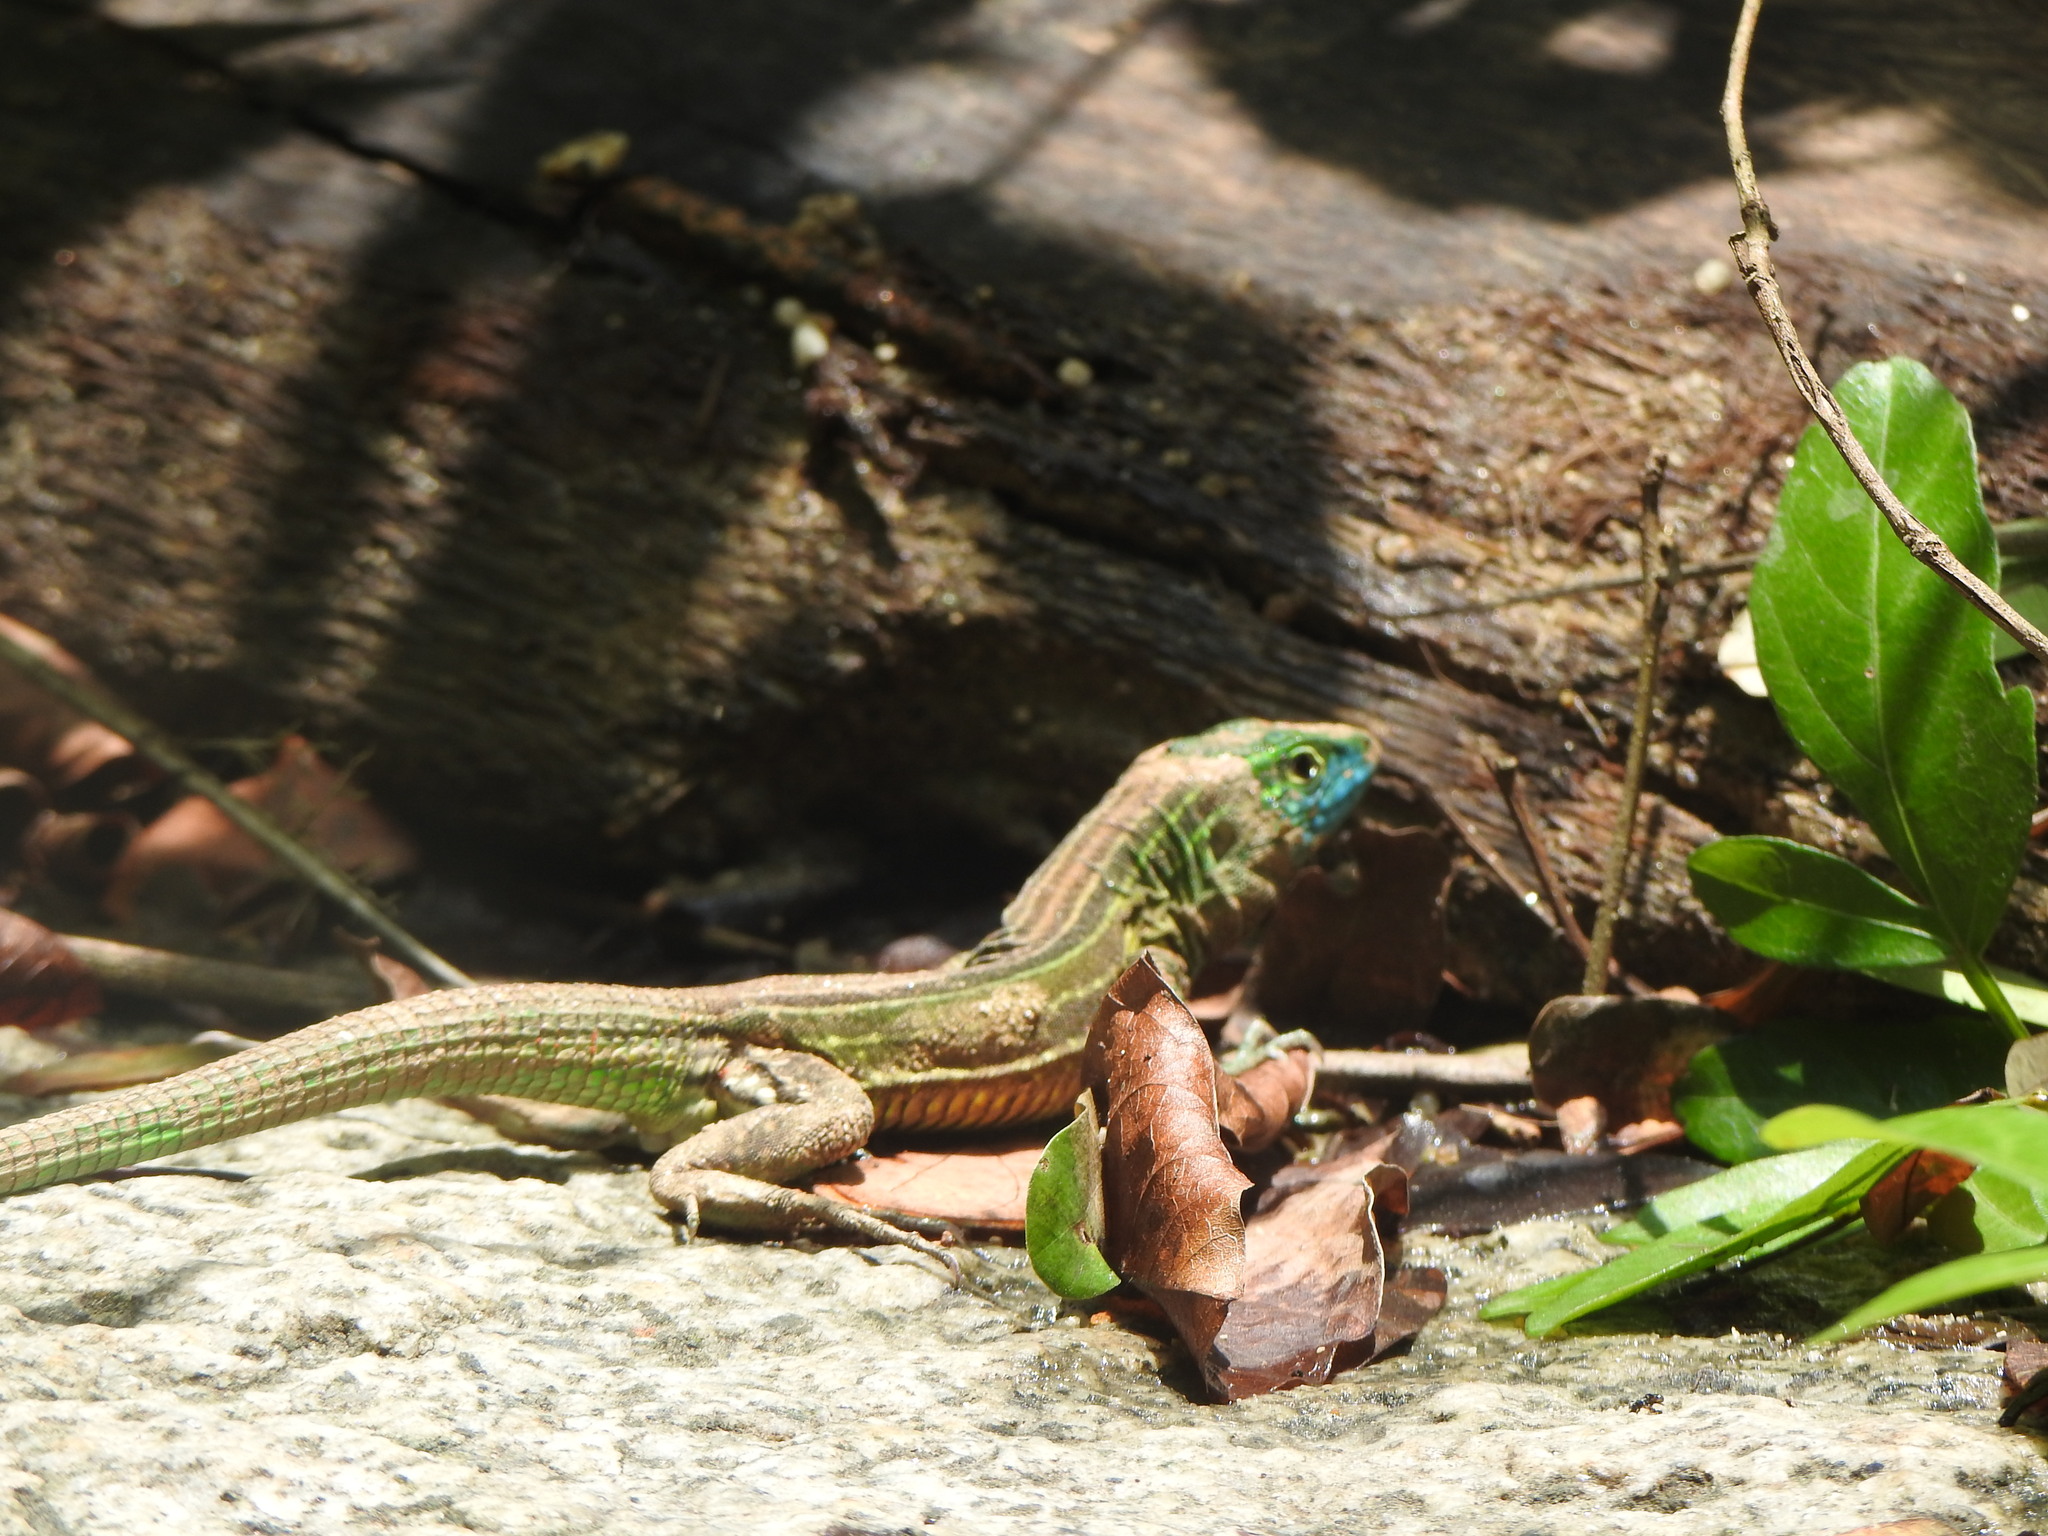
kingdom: Animalia
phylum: Chordata
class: Squamata
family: Teiidae
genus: Cnemidophorus
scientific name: Cnemidophorus gaigei
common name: Gaige’s rainbow lizard
